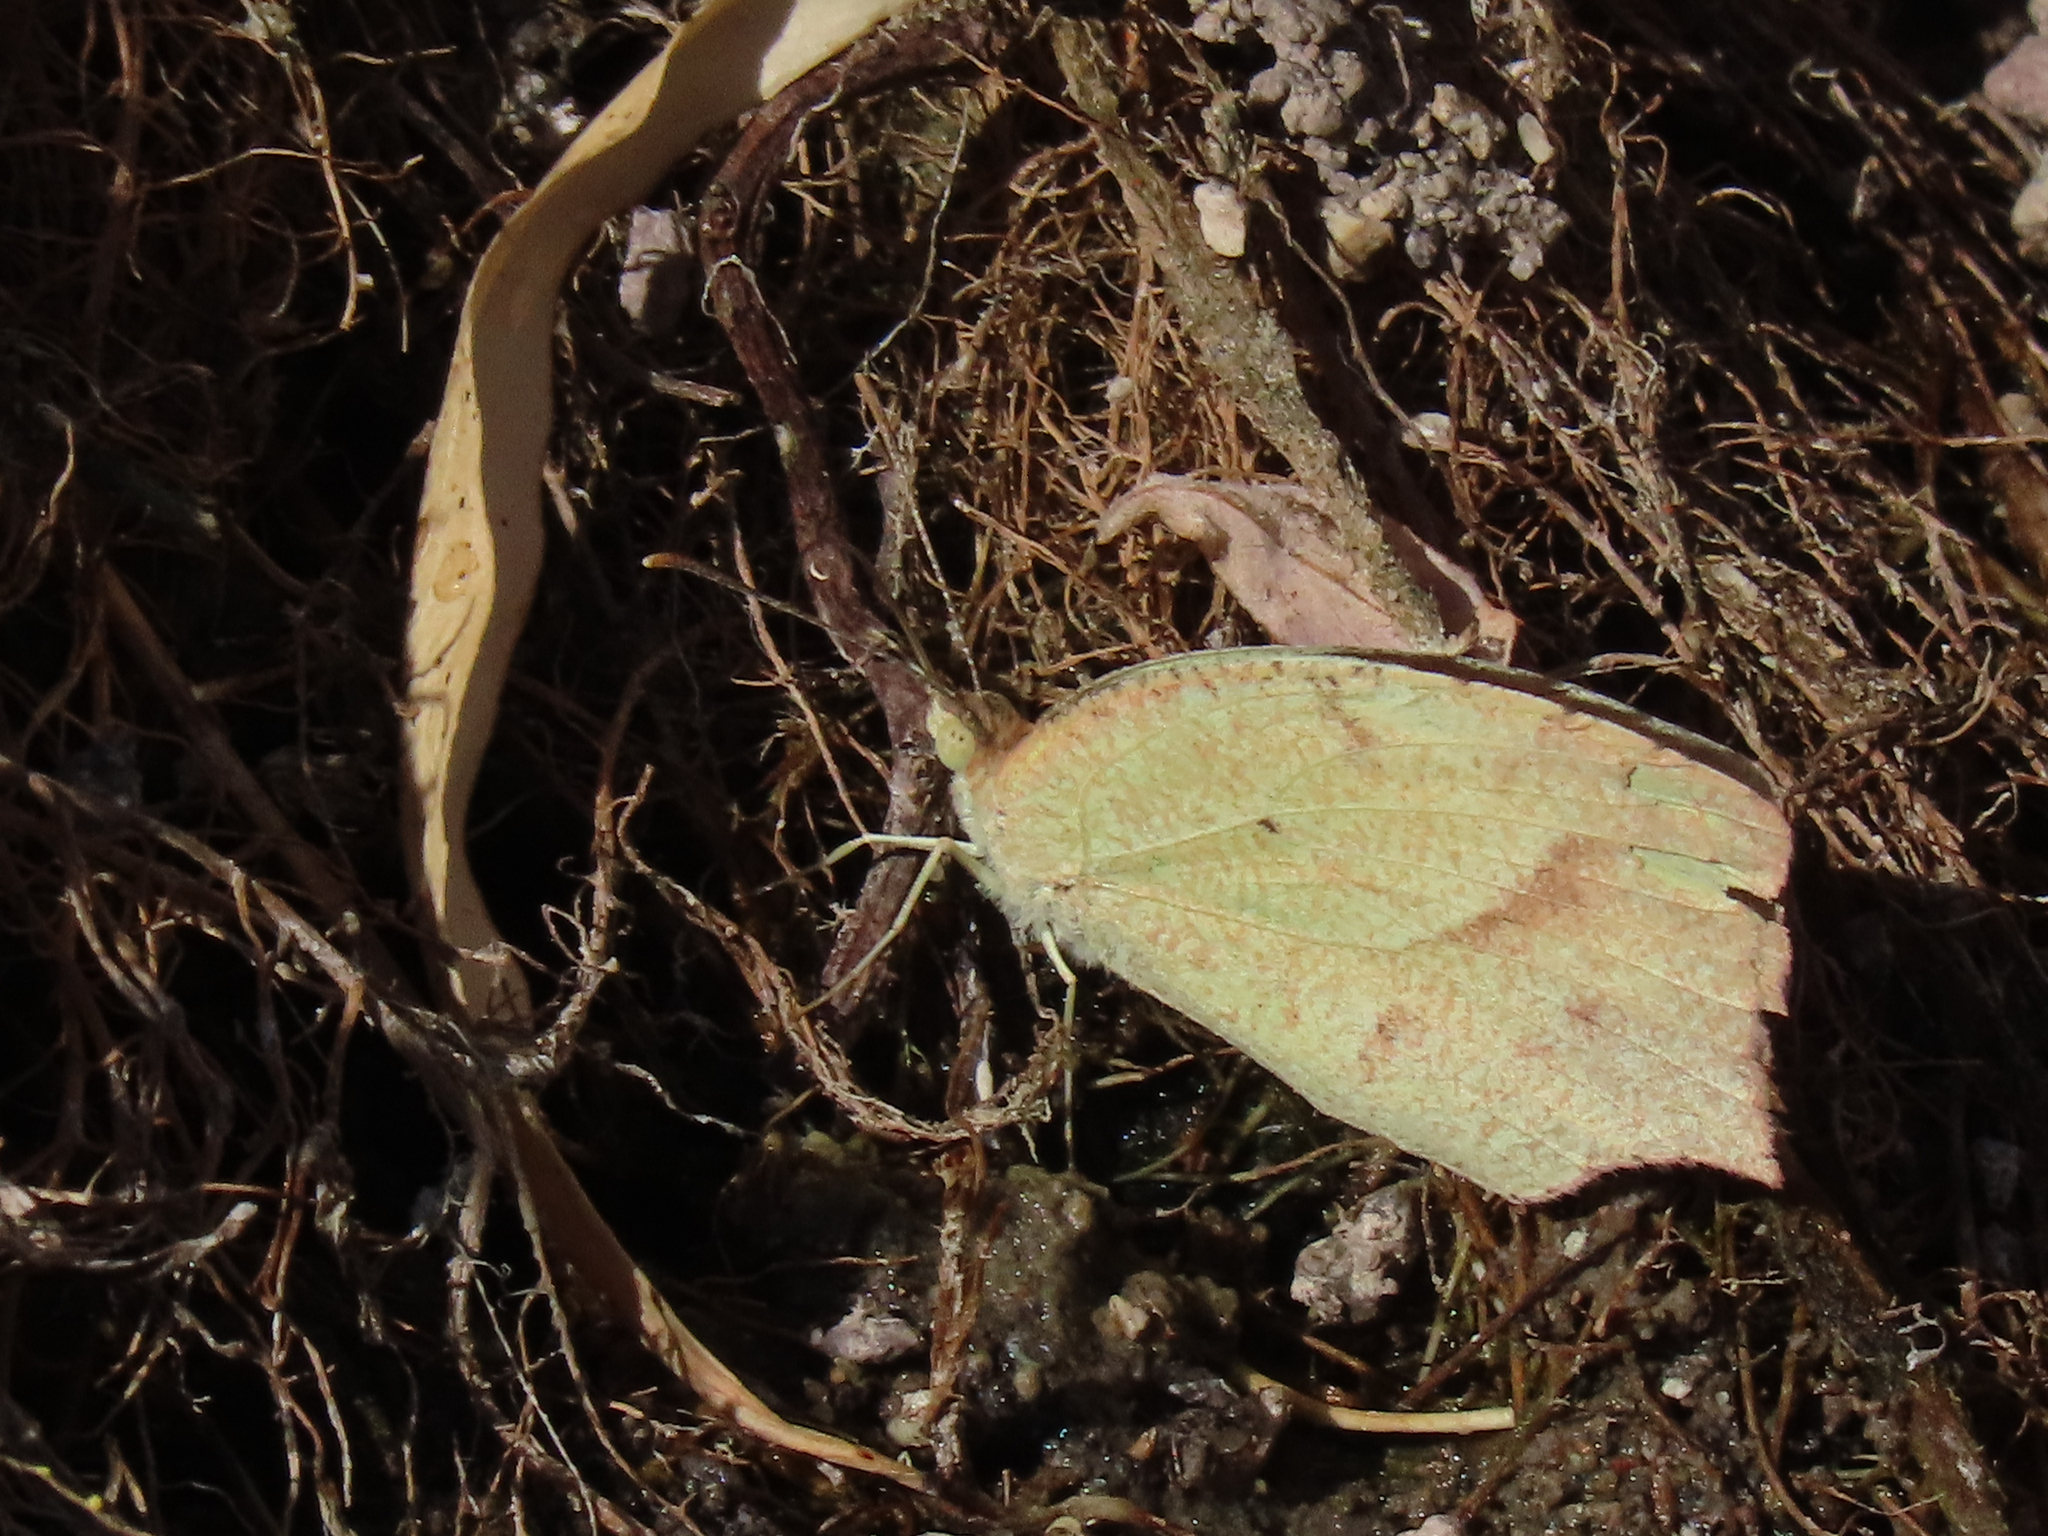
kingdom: Animalia
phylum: Arthropoda
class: Insecta
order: Lepidoptera
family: Pieridae
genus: Abaeis
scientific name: Abaeis mexicana
